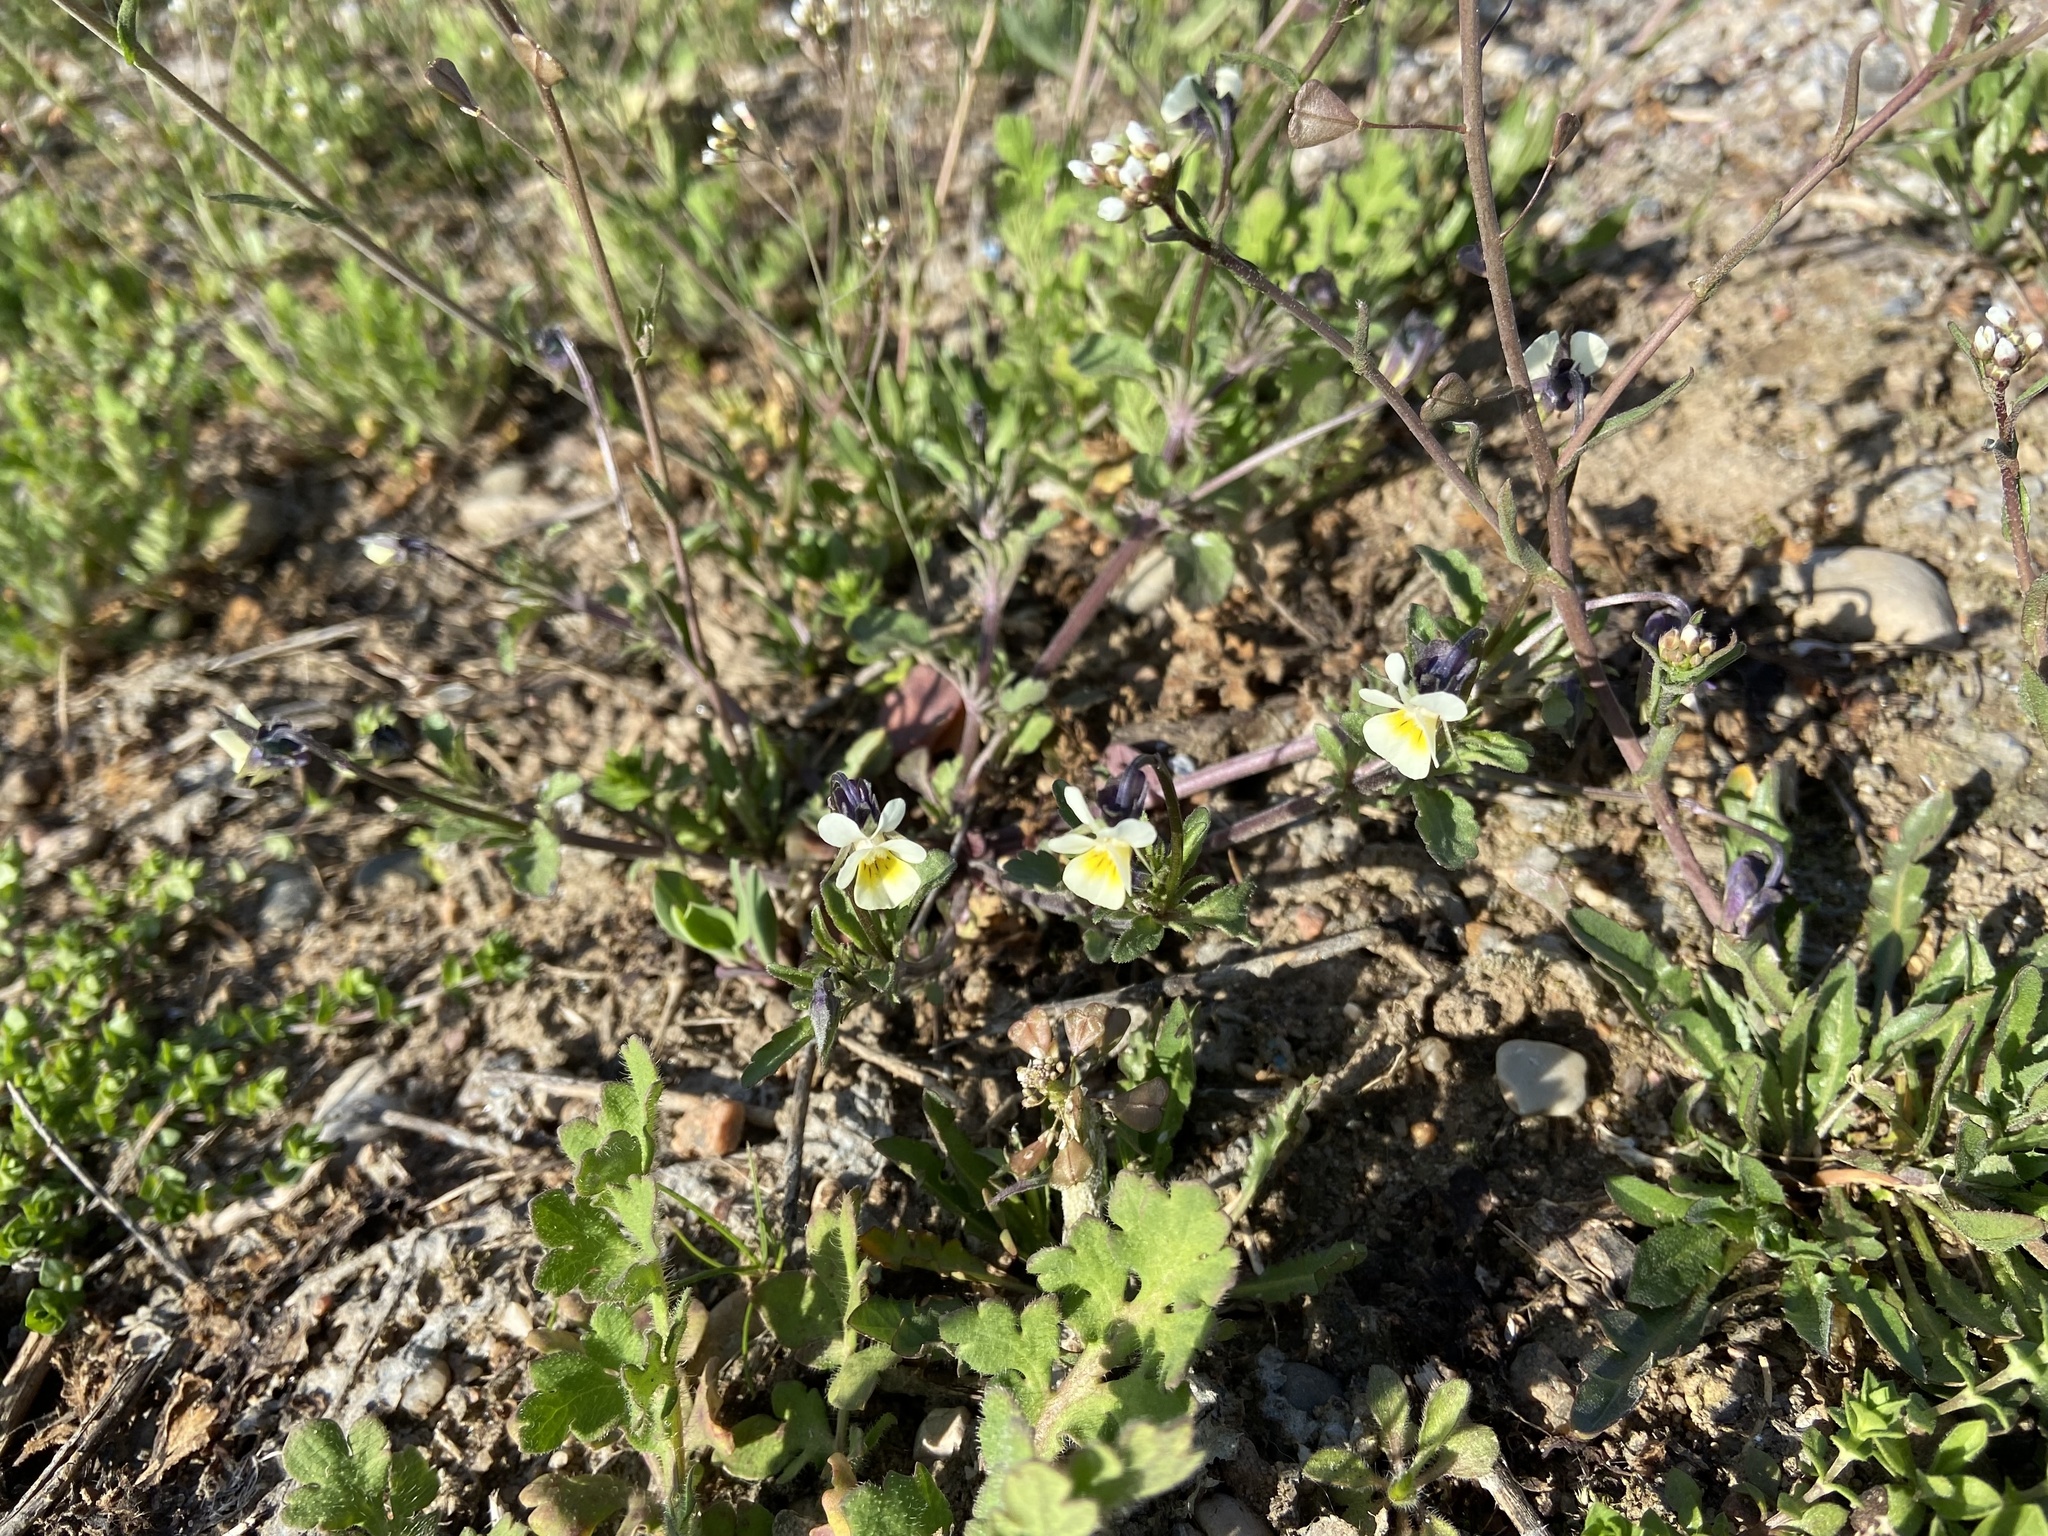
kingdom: Plantae
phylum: Tracheophyta
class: Magnoliopsida
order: Malpighiales
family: Violaceae
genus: Viola
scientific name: Viola arvensis
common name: Field pansy
